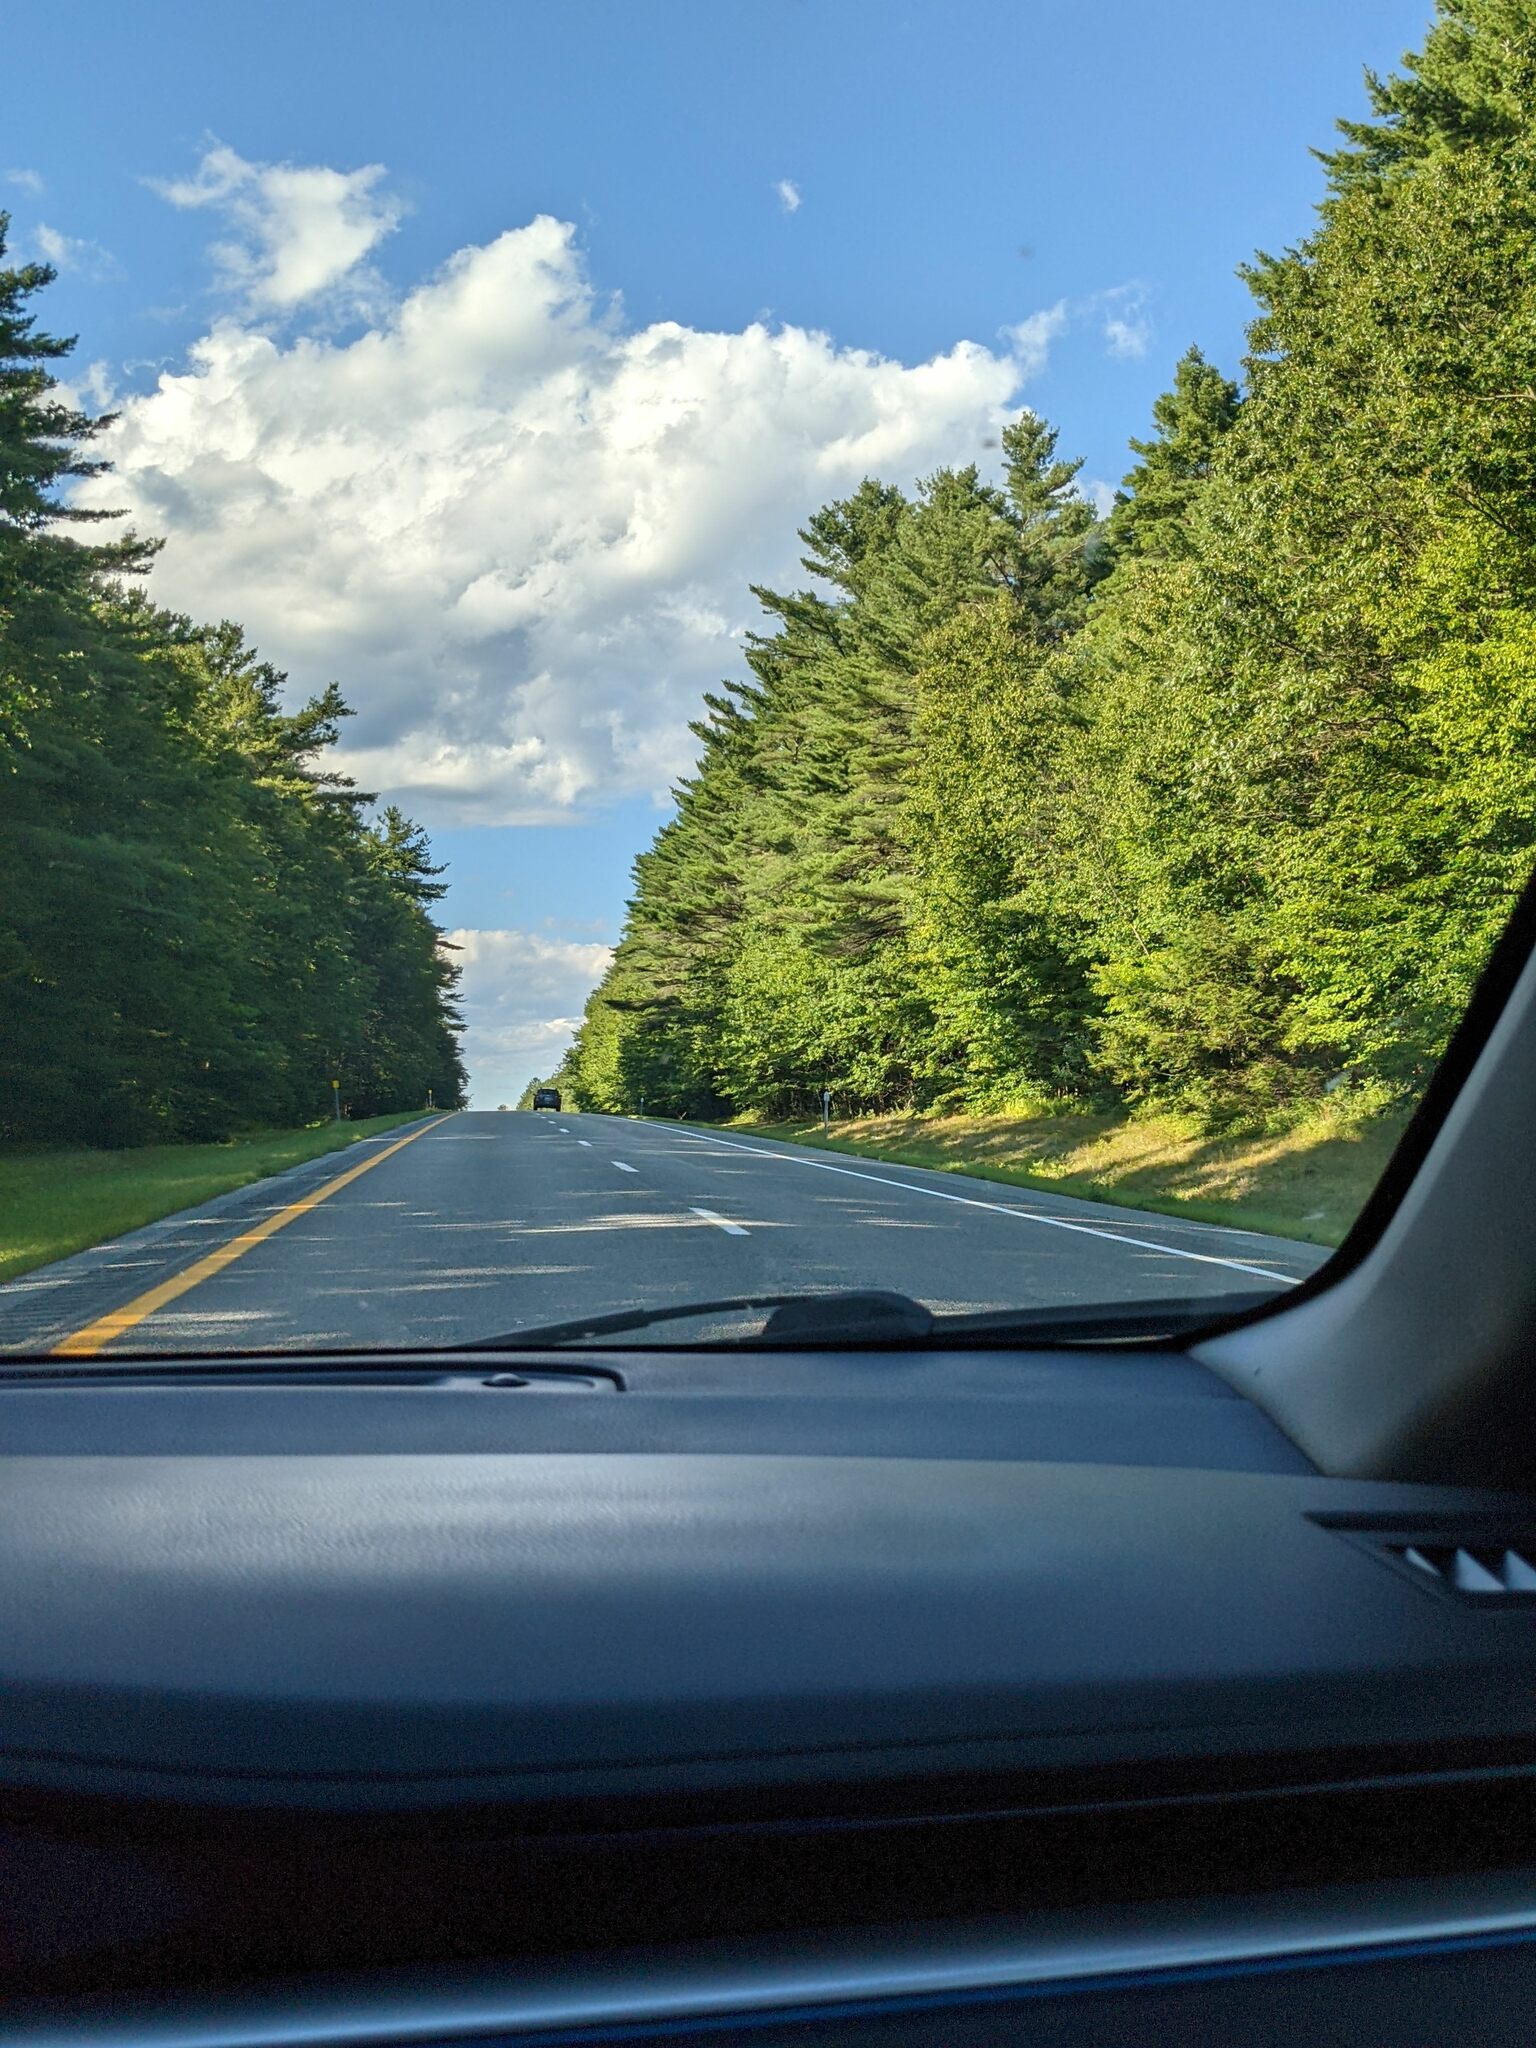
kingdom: Plantae
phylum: Tracheophyta
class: Pinopsida
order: Pinales
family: Pinaceae
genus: Pinus
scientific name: Pinus strobus
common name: Weymouth pine
